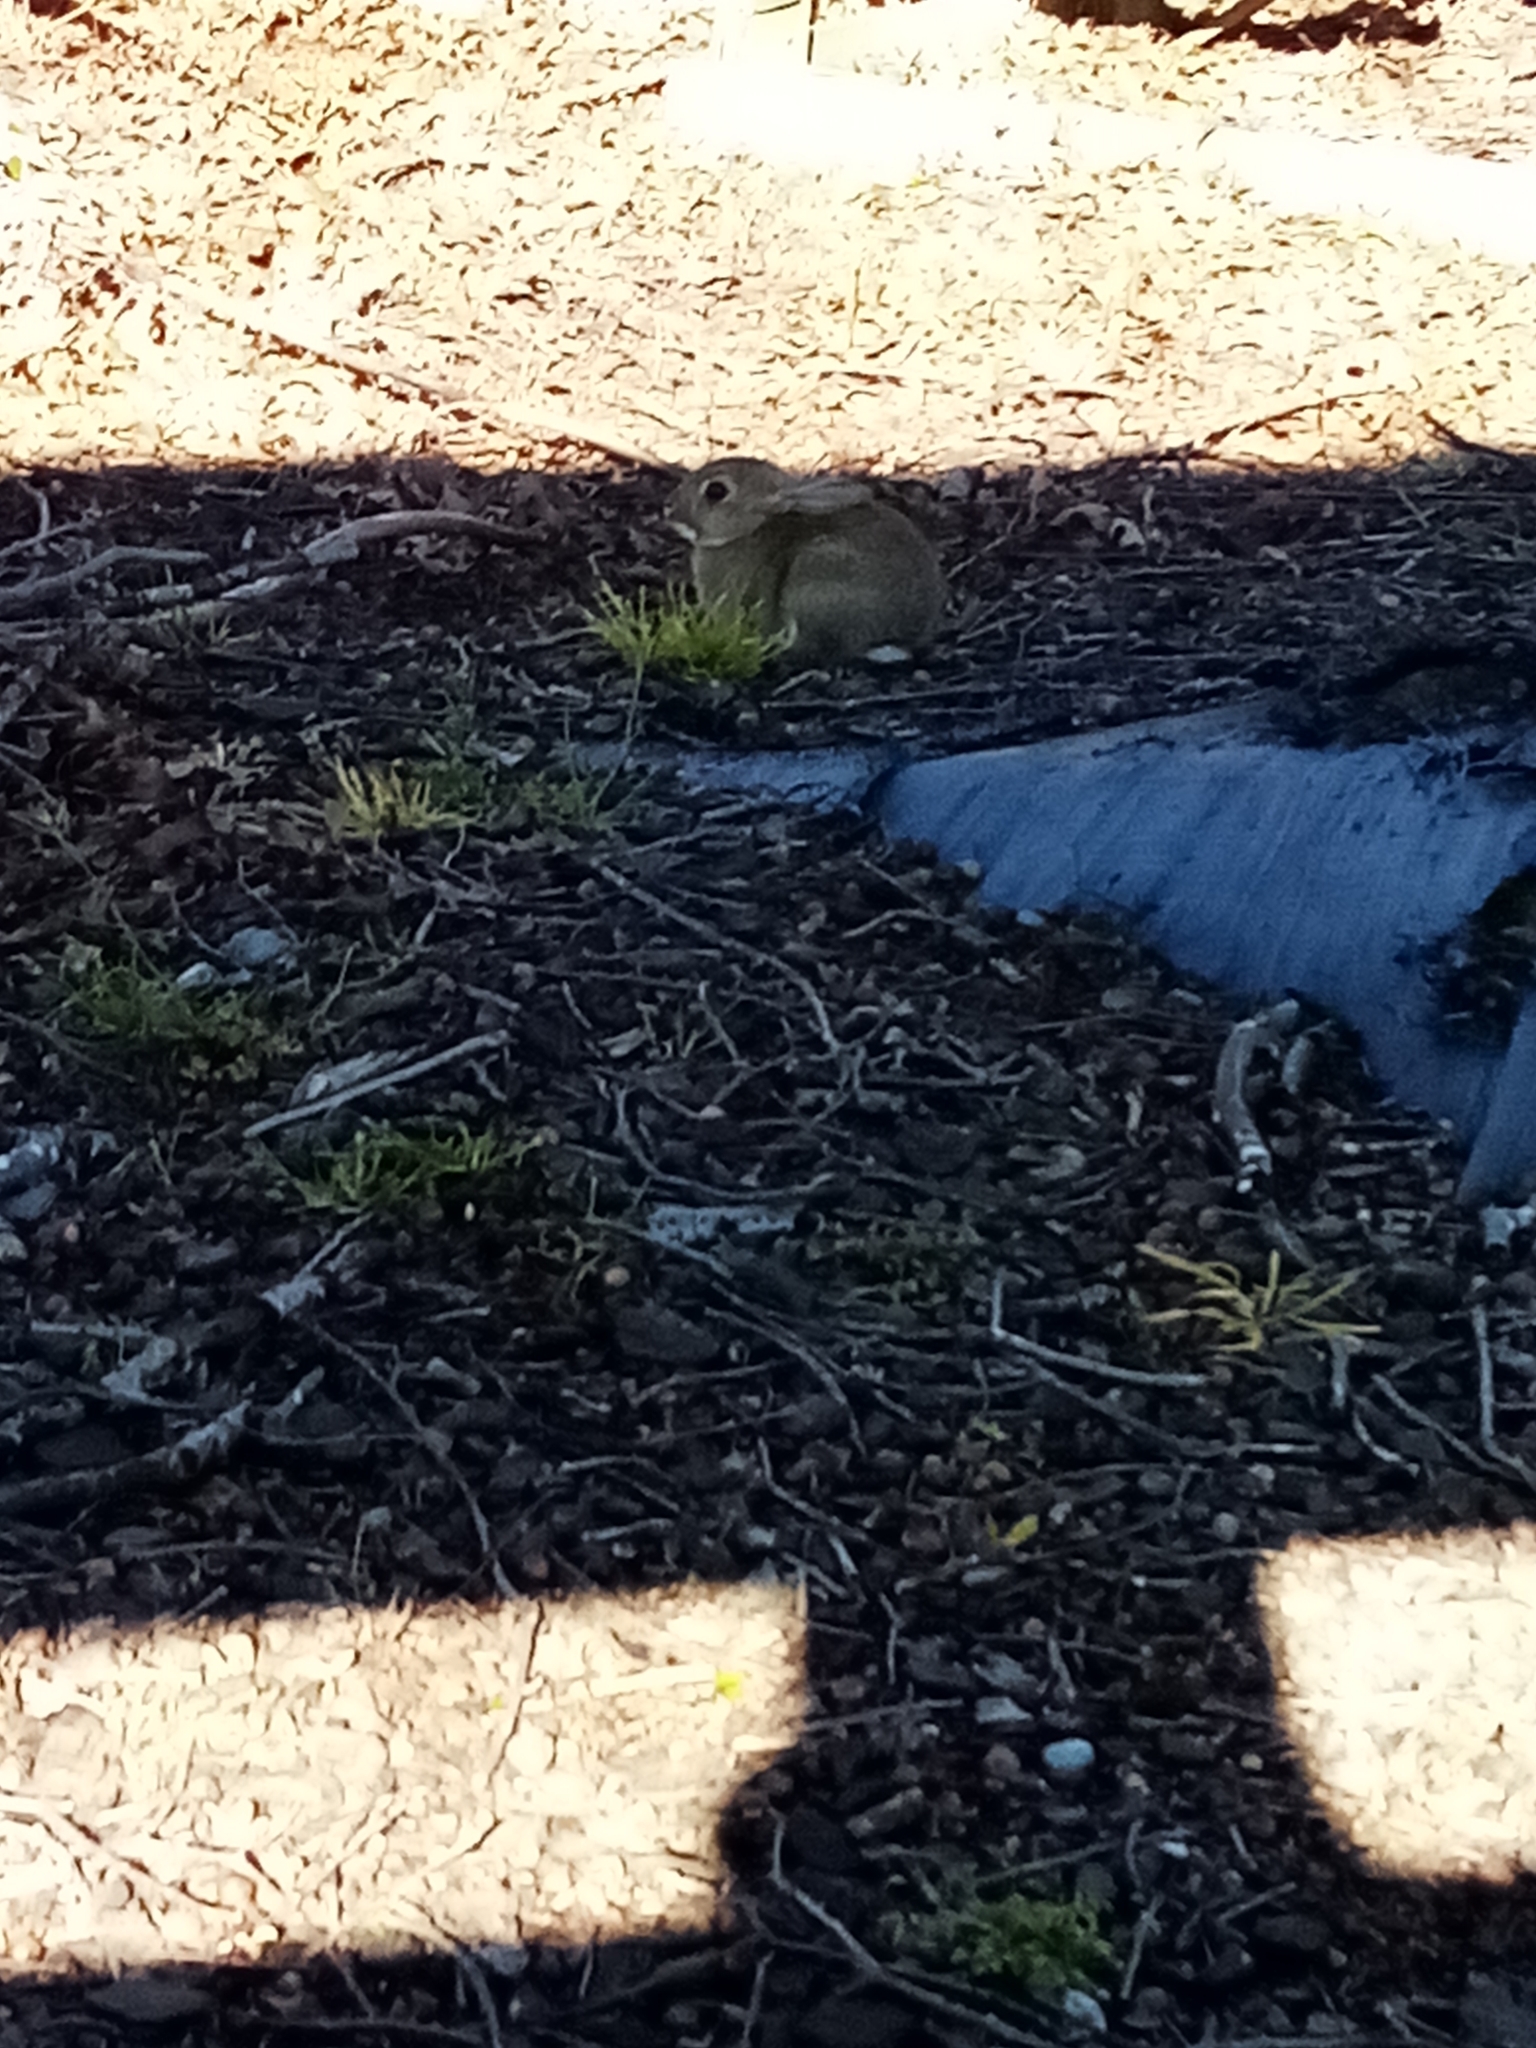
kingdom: Animalia
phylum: Chordata
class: Mammalia
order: Lagomorpha
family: Leporidae
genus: Oryctolagus
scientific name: Oryctolagus cuniculus
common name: European rabbit
